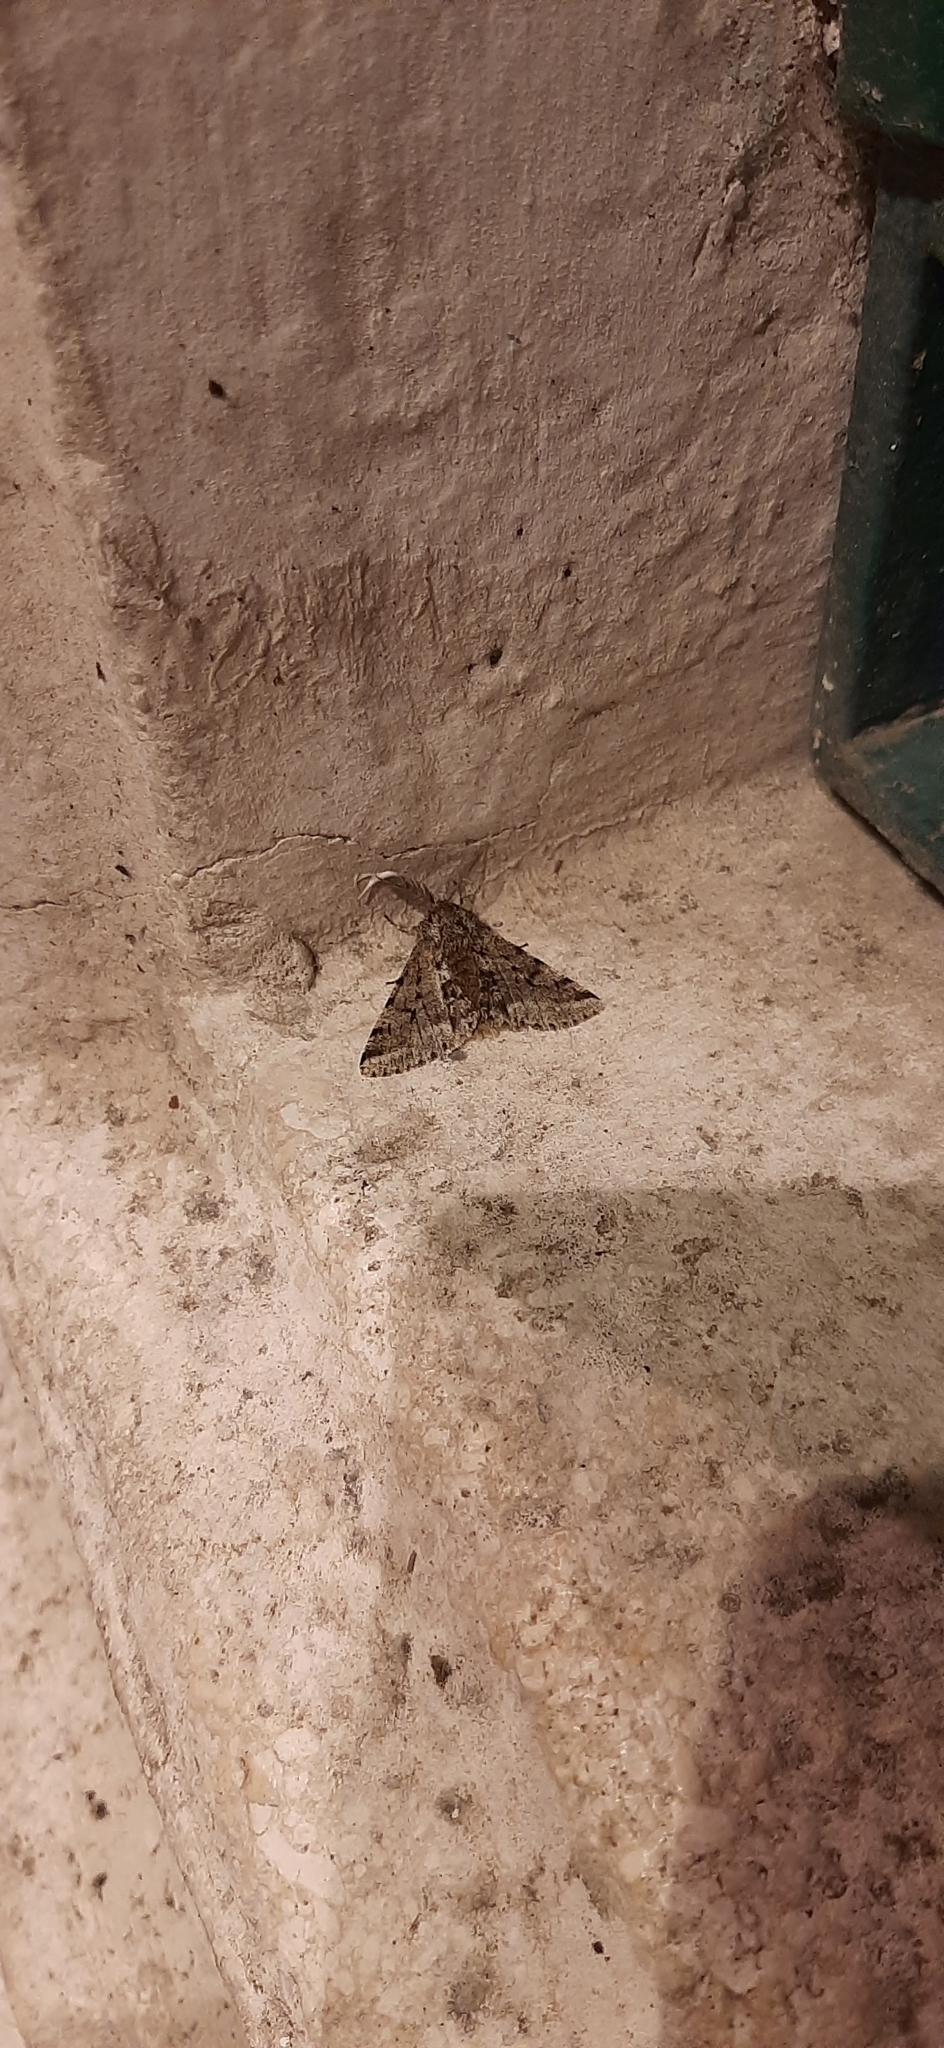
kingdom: Animalia
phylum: Arthropoda
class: Insecta
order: Lepidoptera
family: Geometridae
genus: Lycia
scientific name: Lycia hirtaria
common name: Brindled beauty
